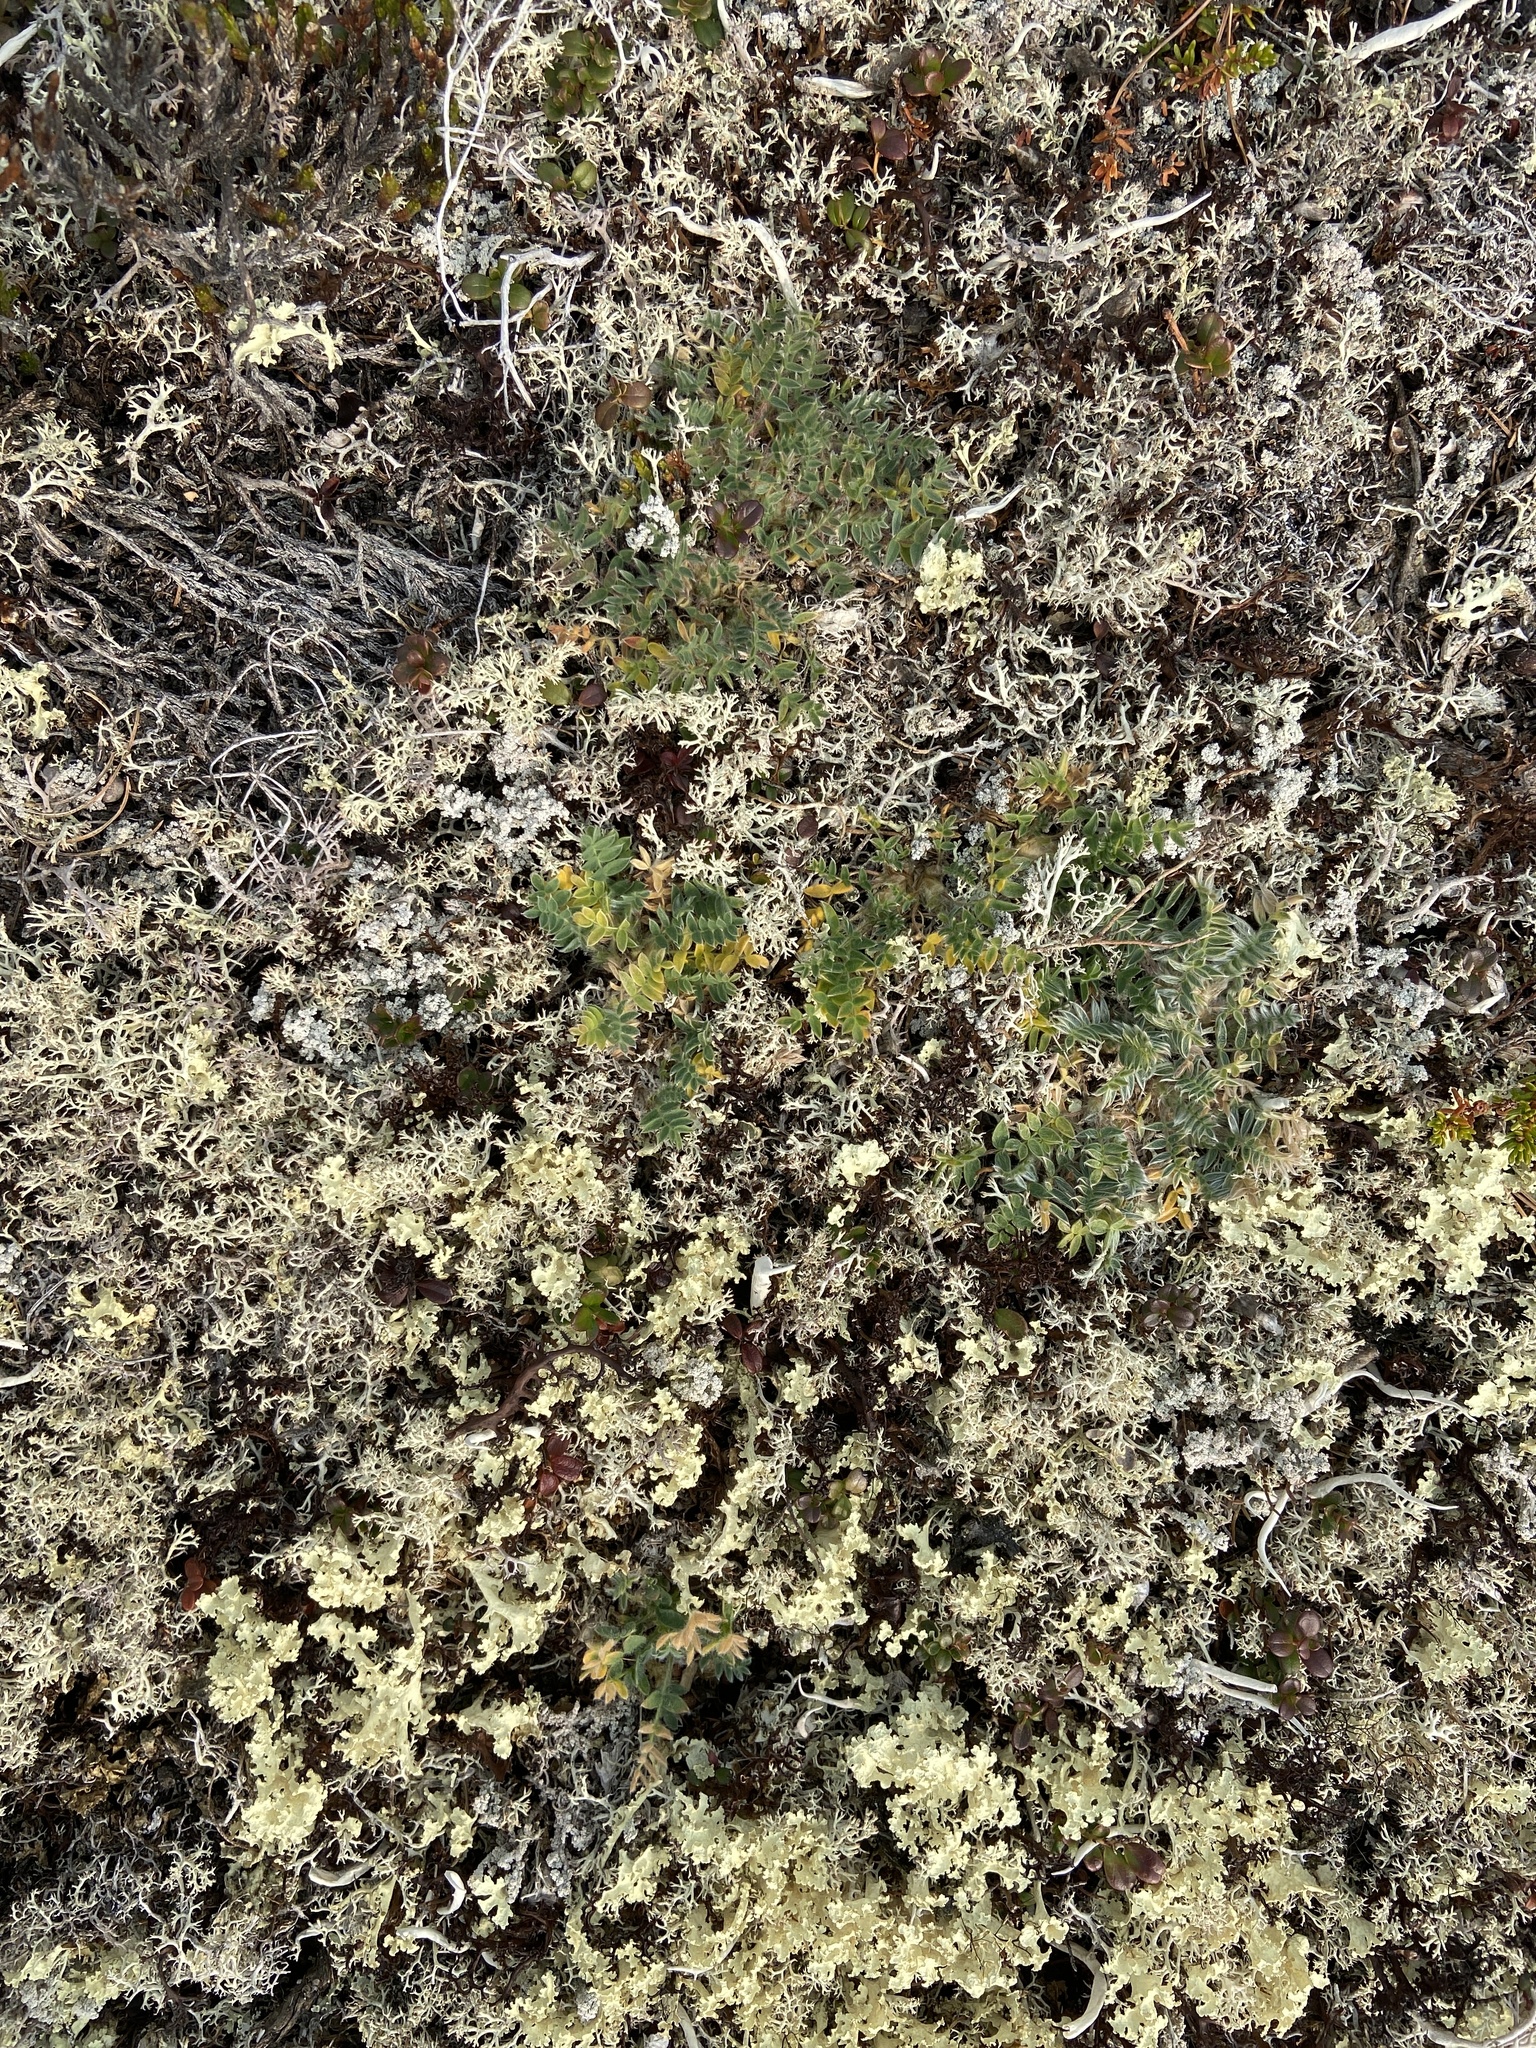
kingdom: Plantae
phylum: Tracheophyta
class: Magnoliopsida
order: Fabales
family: Fabaceae
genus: Oxytropis
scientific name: Oxytropis susumanica
